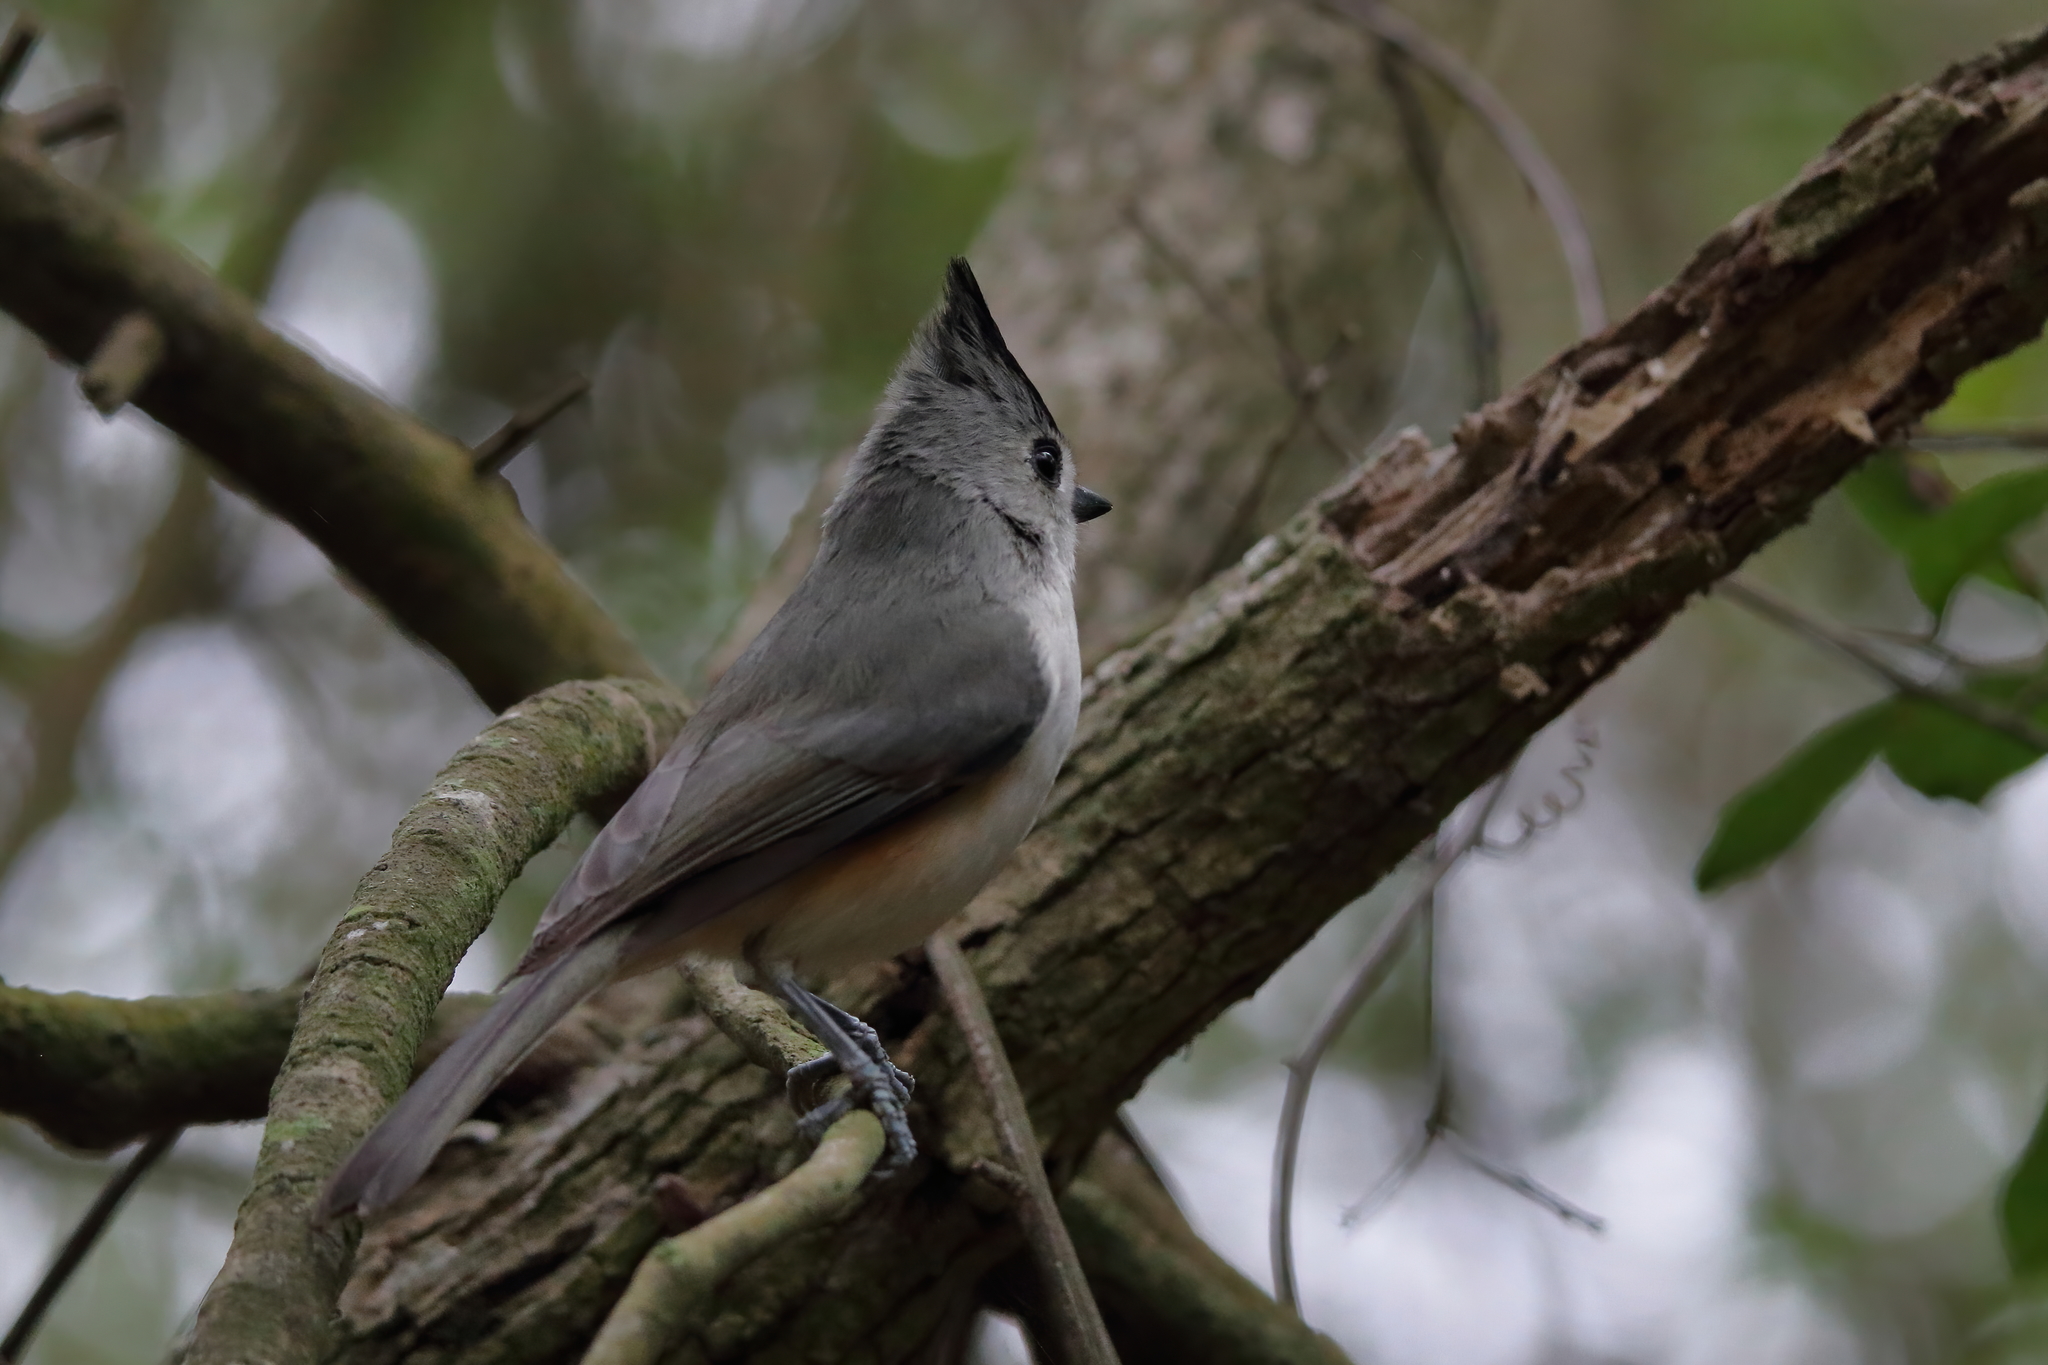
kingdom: Animalia
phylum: Chordata
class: Aves
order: Passeriformes
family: Paridae
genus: Baeolophus
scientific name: Baeolophus atricristatus
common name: Black-crested titmouse
